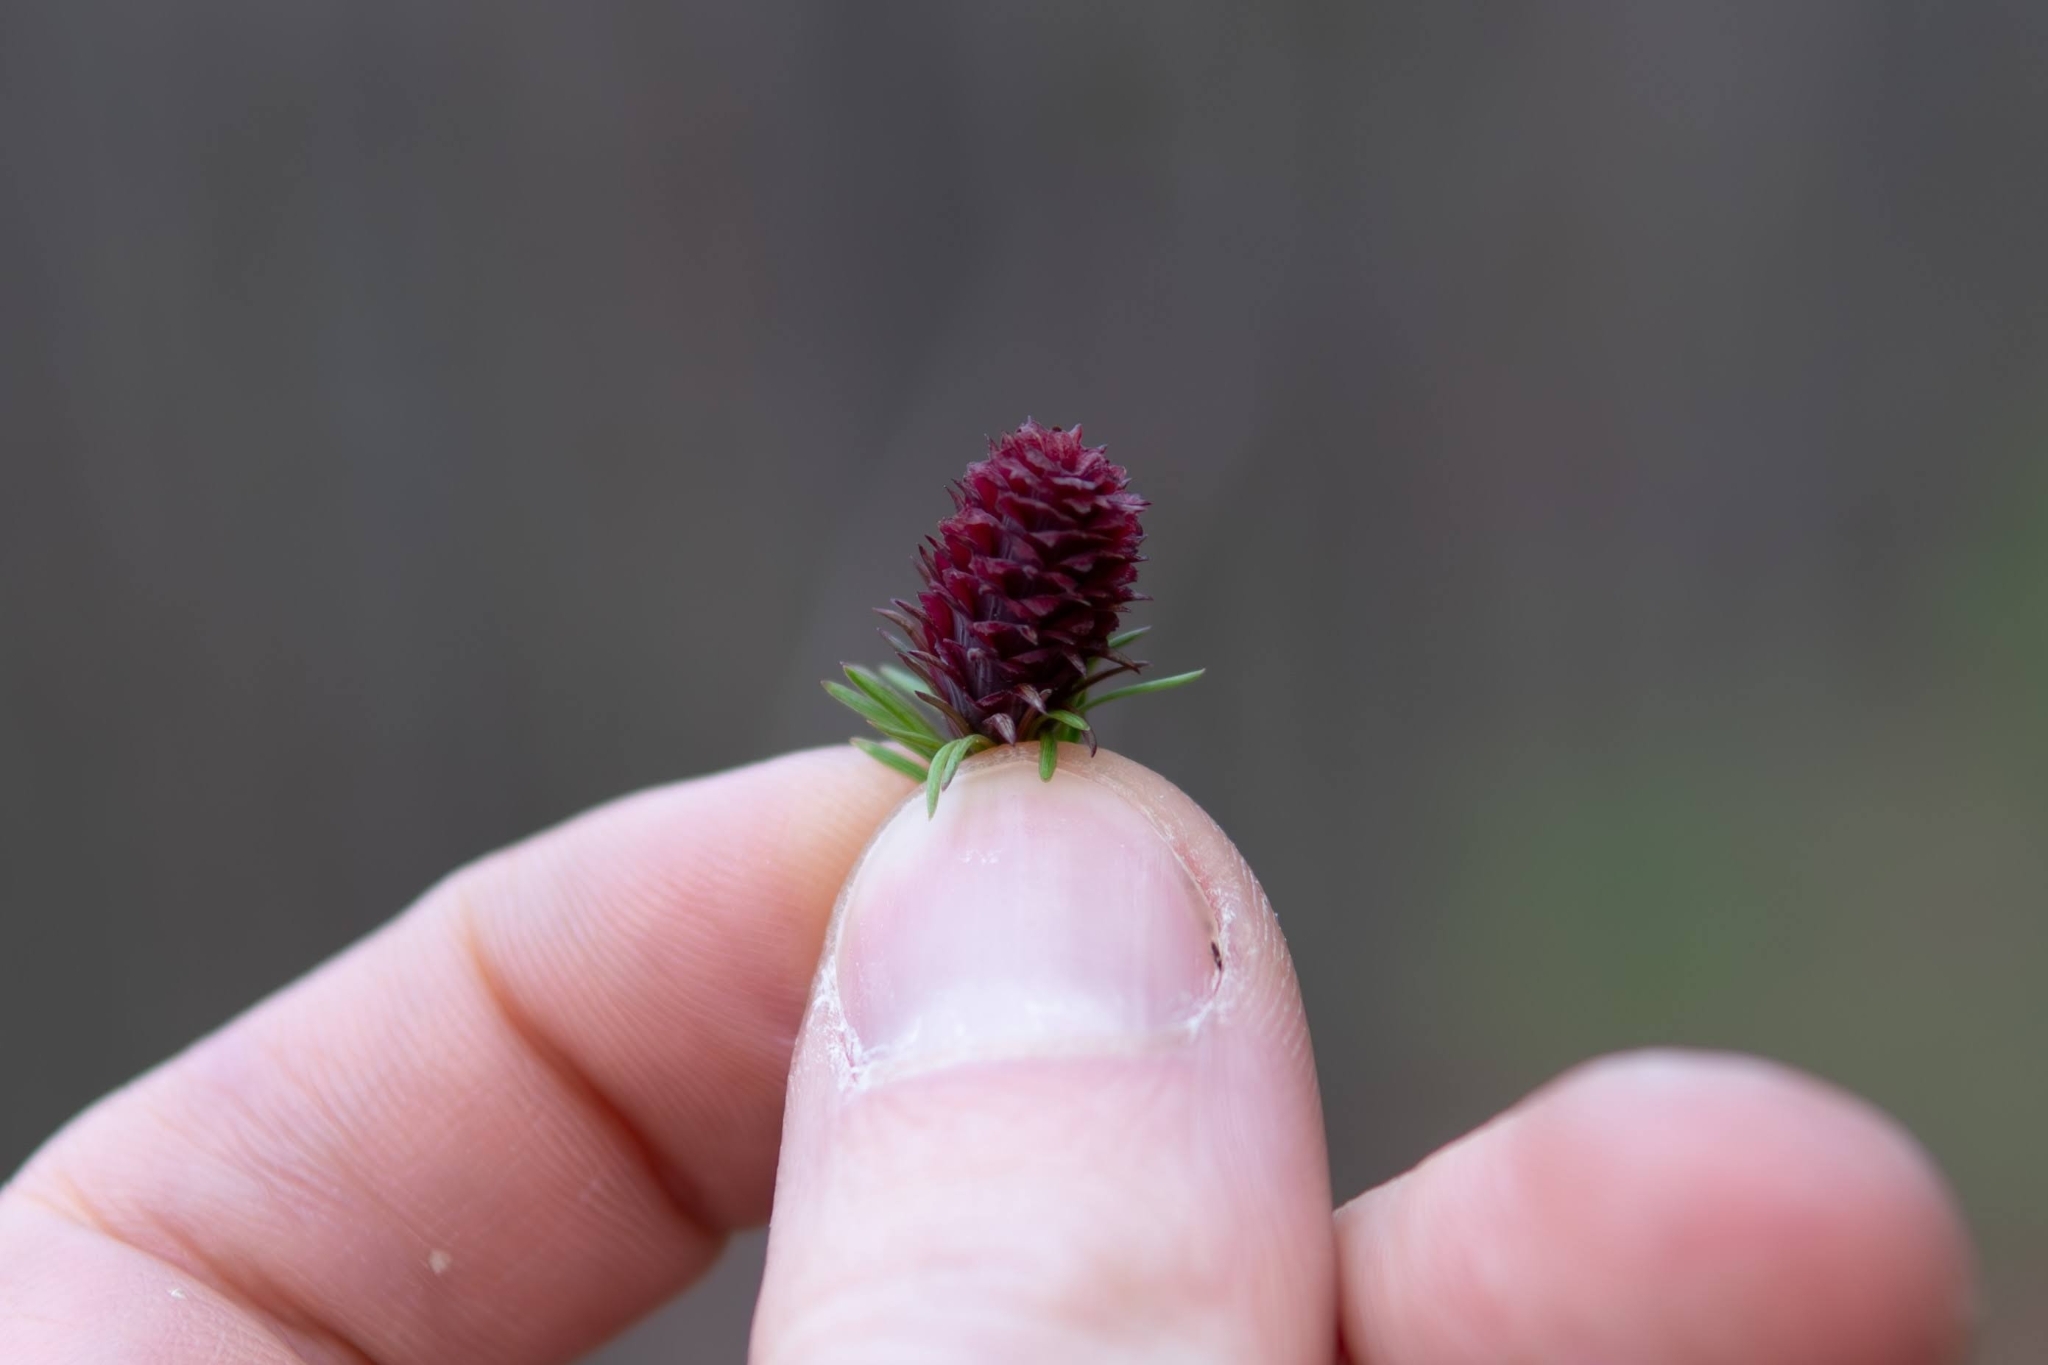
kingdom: Plantae
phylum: Tracheophyta
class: Pinopsida
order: Pinales
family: Pinaceae
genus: Larix
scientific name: Larix decidua
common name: European larch
